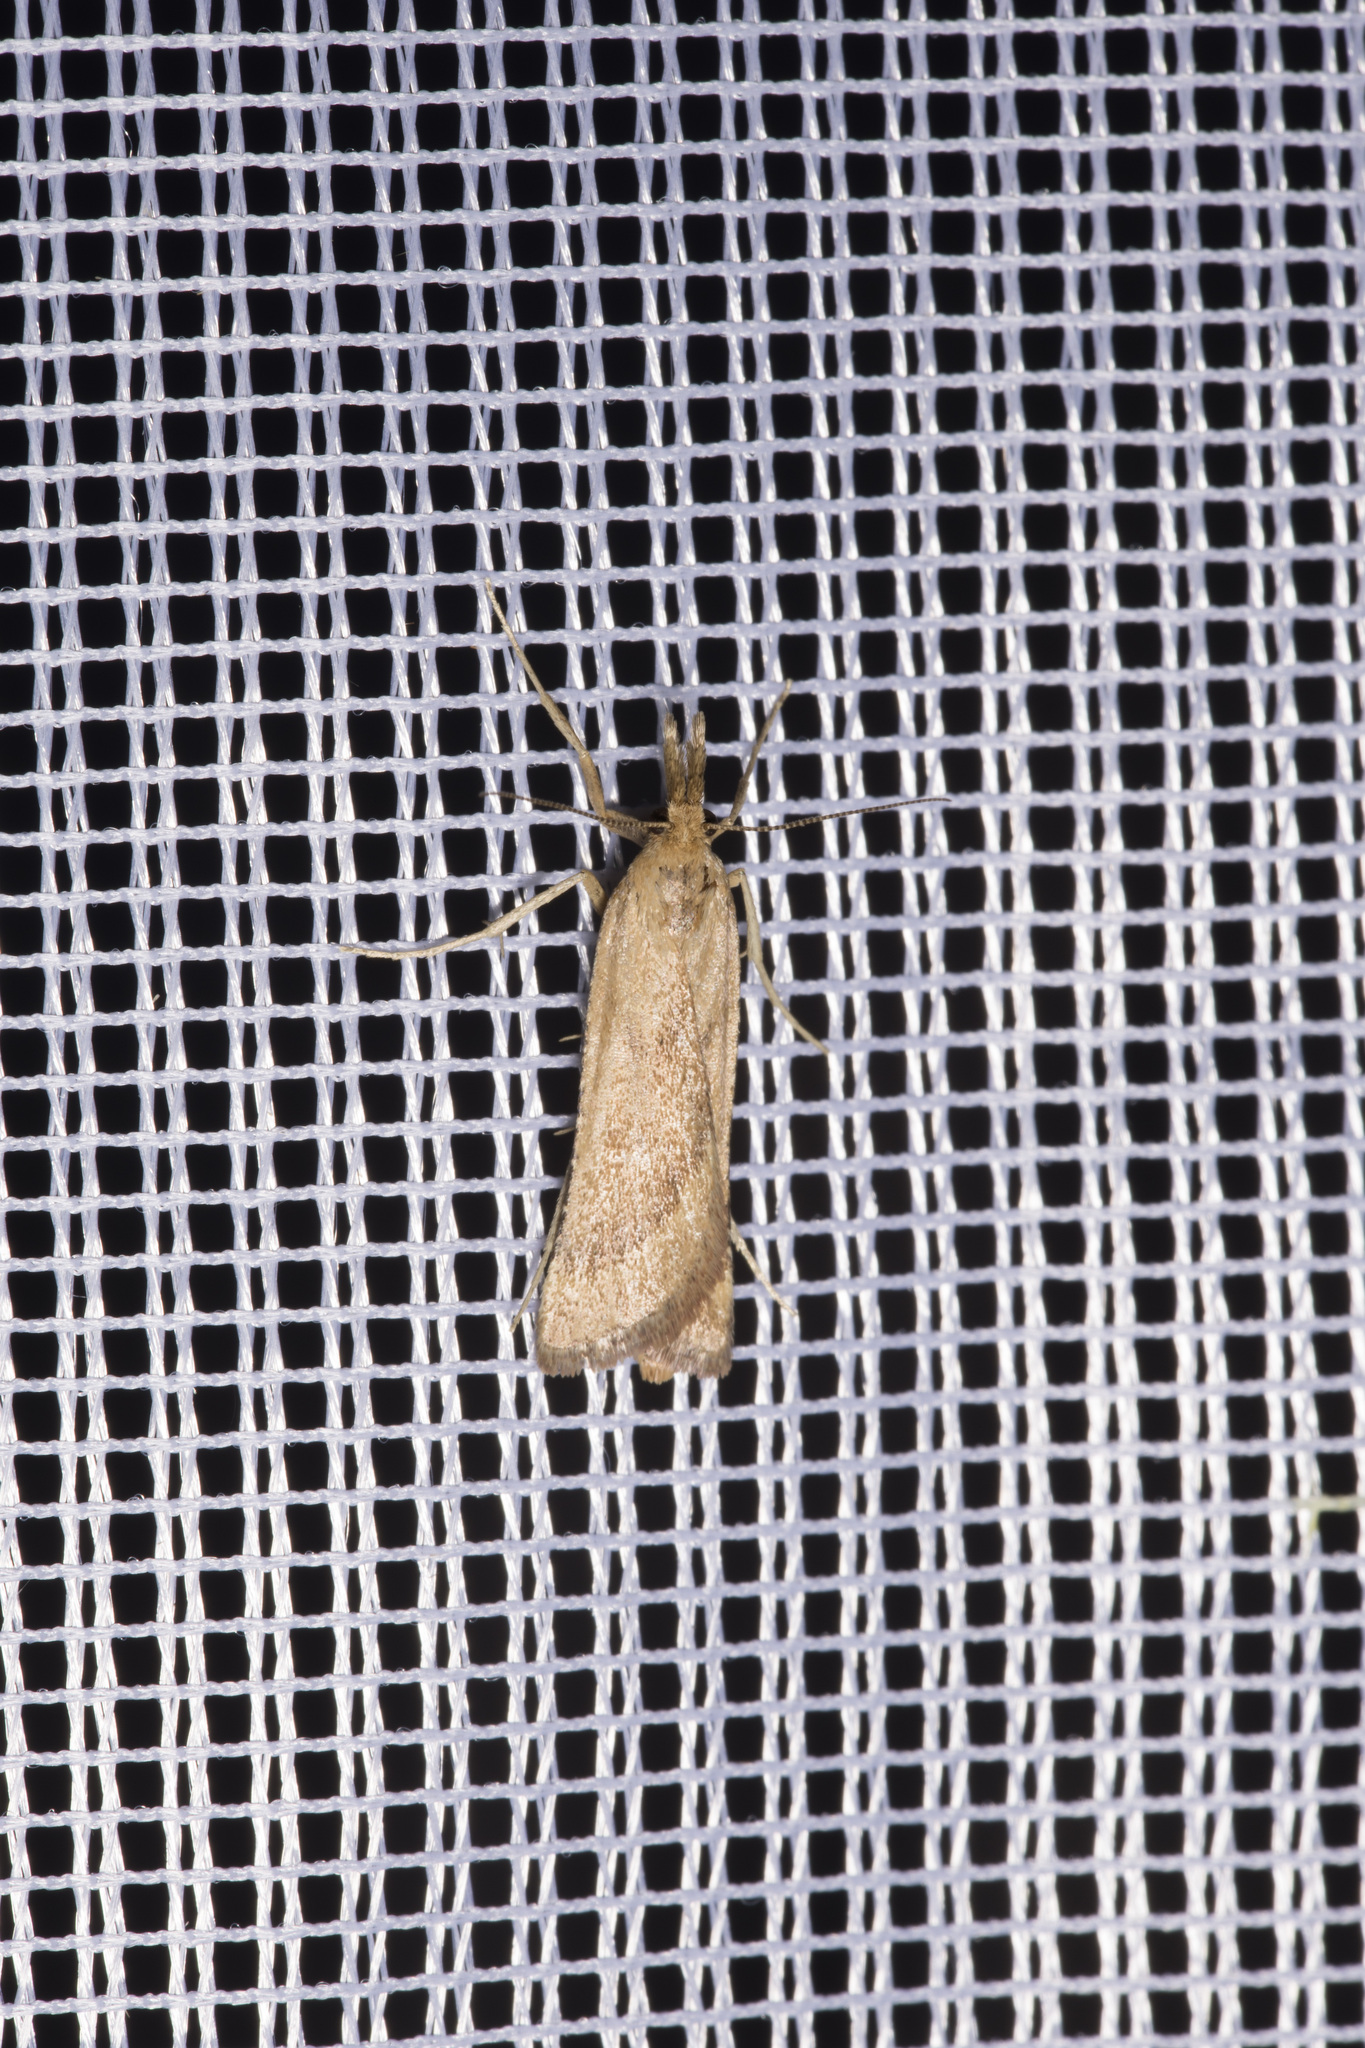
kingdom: Animalia
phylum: Arthropoda
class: Insecta
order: Lepidoptera
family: Pyralidae
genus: Synaphe
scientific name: Synaphe punctalis
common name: Long-legged tabby
